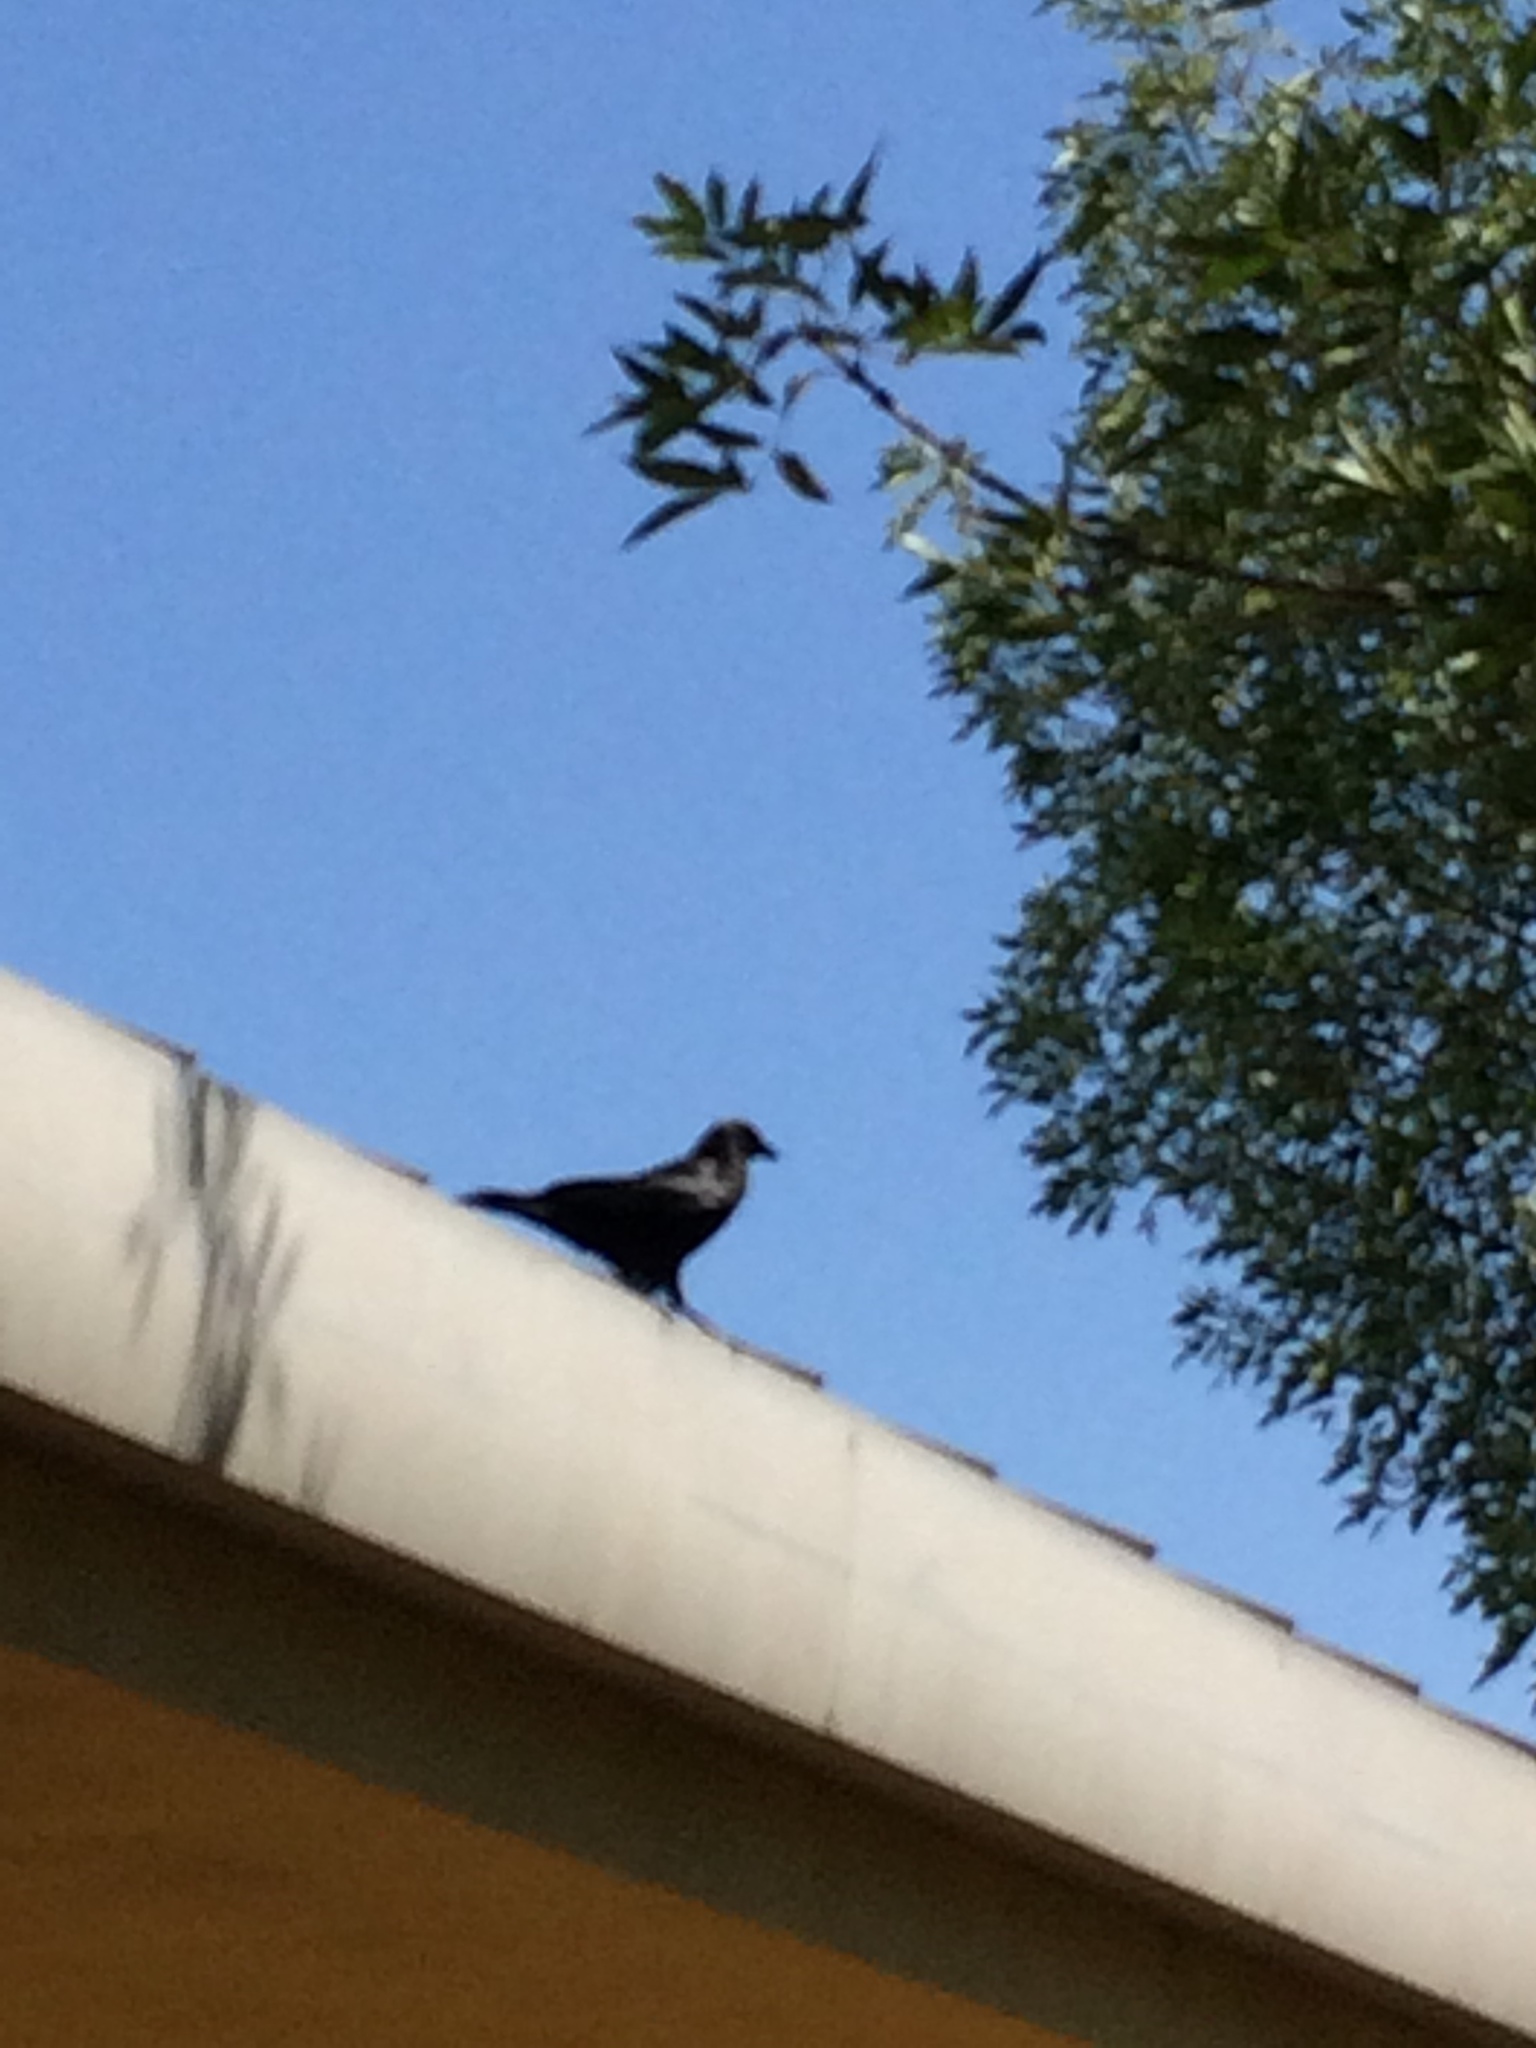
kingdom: Animalia
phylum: Chordata
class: Aves
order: Passeriformes
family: Corvidae
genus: Corvus
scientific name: Corvus brachyrhynchos
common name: American crow
